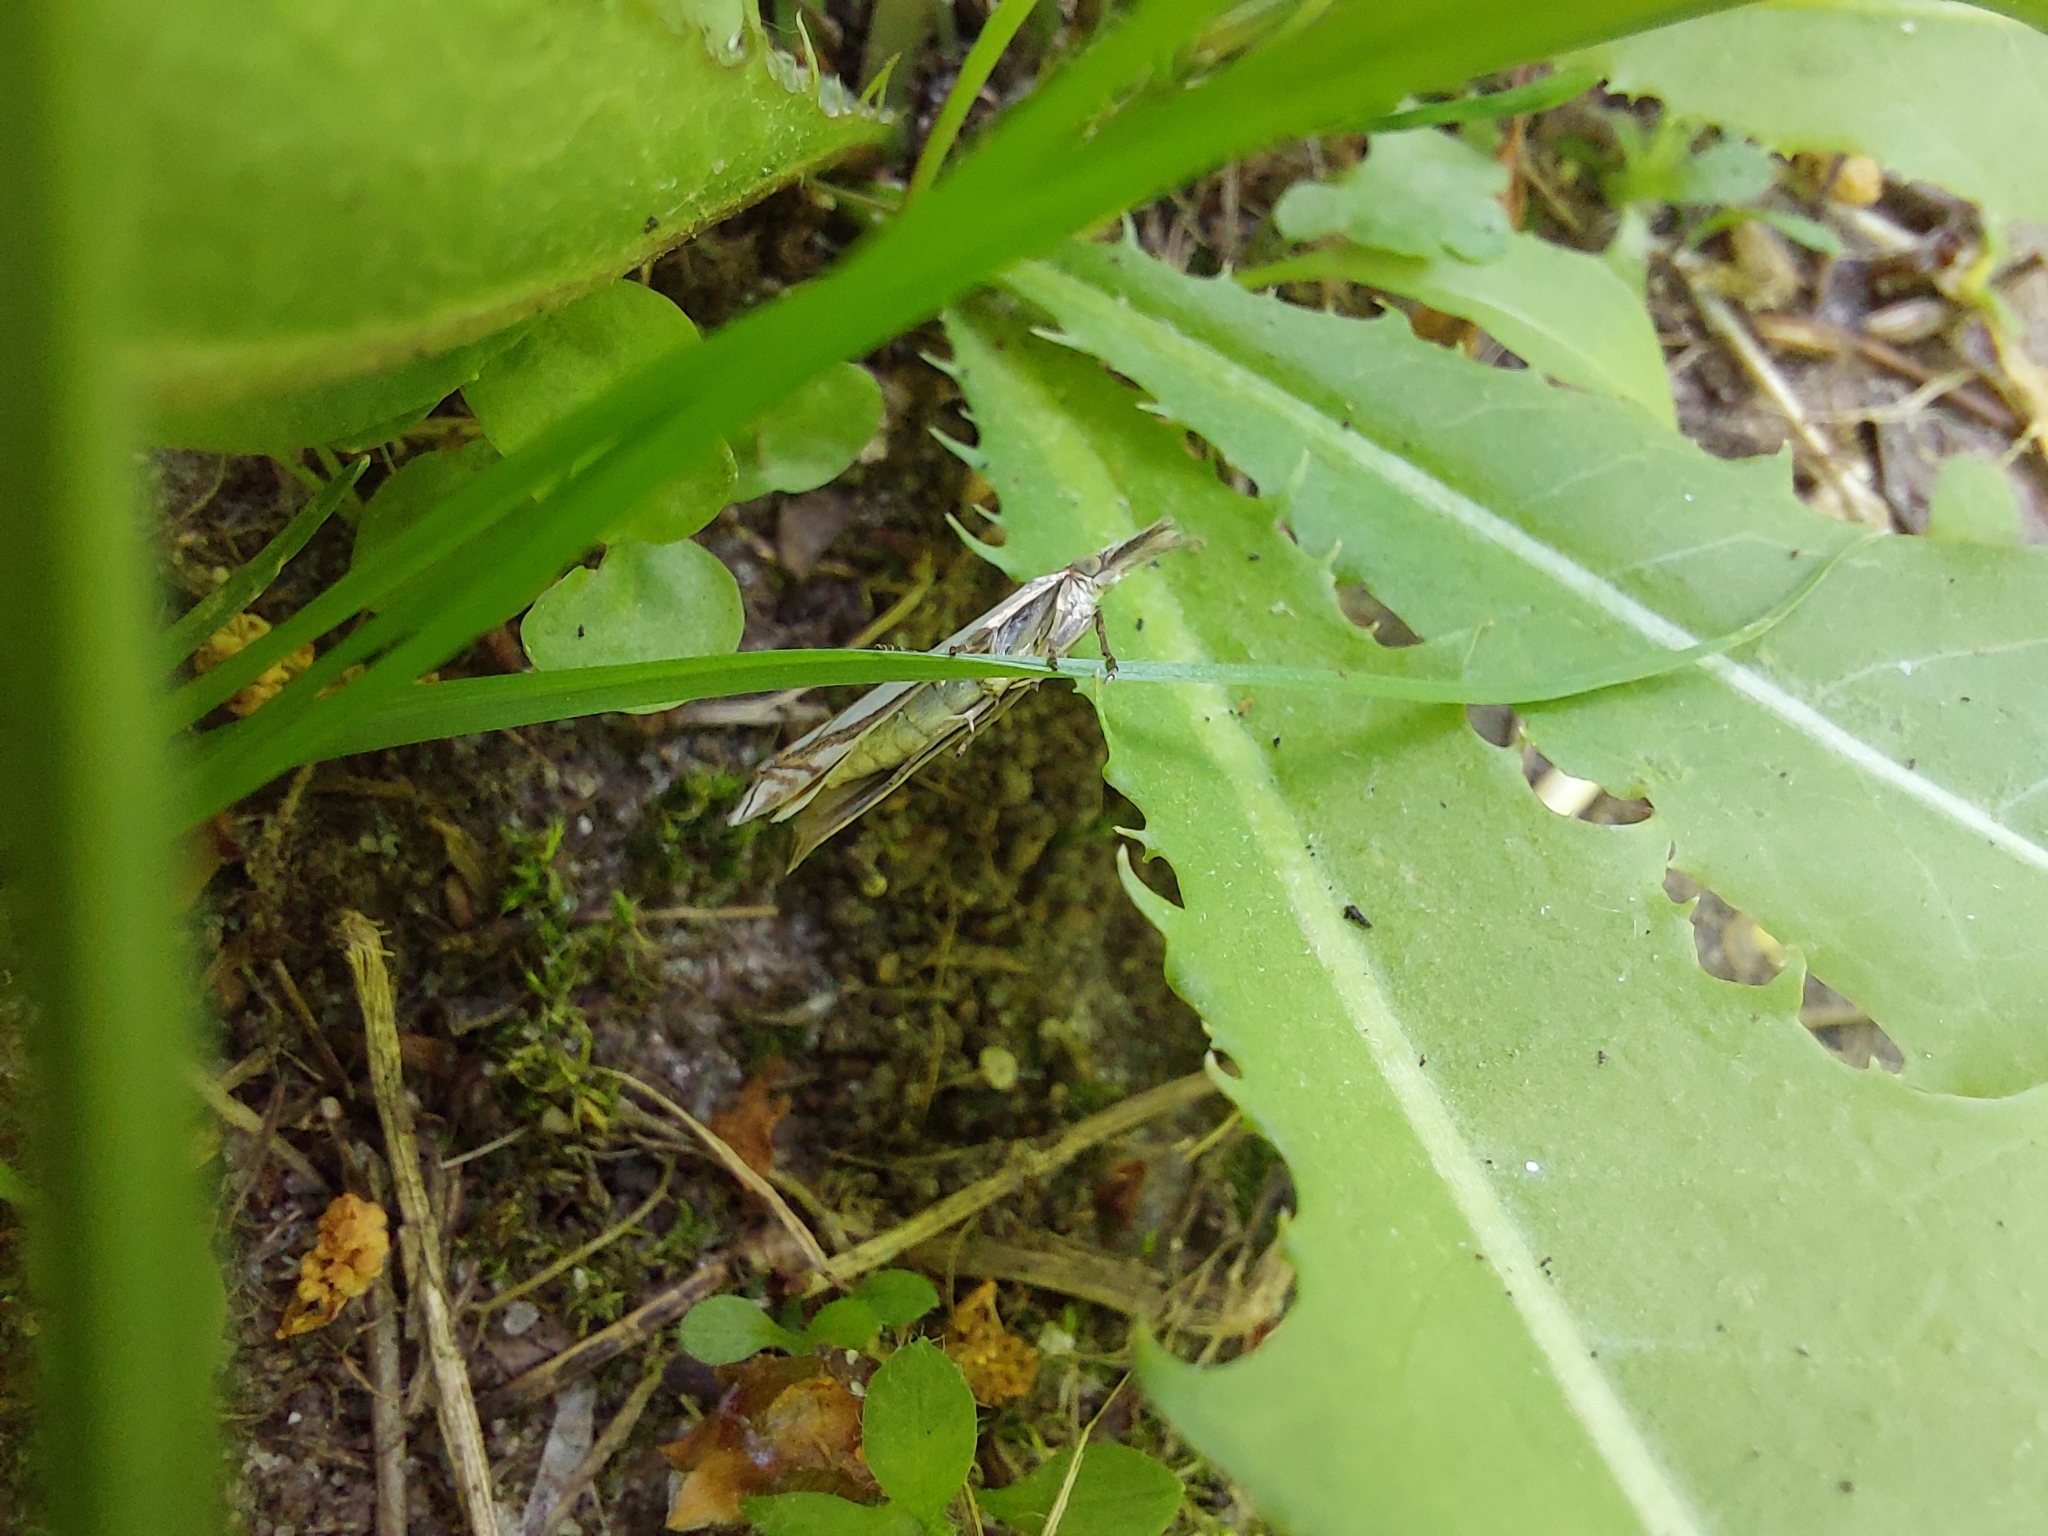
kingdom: Animalia
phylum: Arthropoda
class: Insecta
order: Lepidoptera
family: Crambidae
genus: Crambus
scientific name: Crambus pascuella
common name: Inlaid grass-veneer
